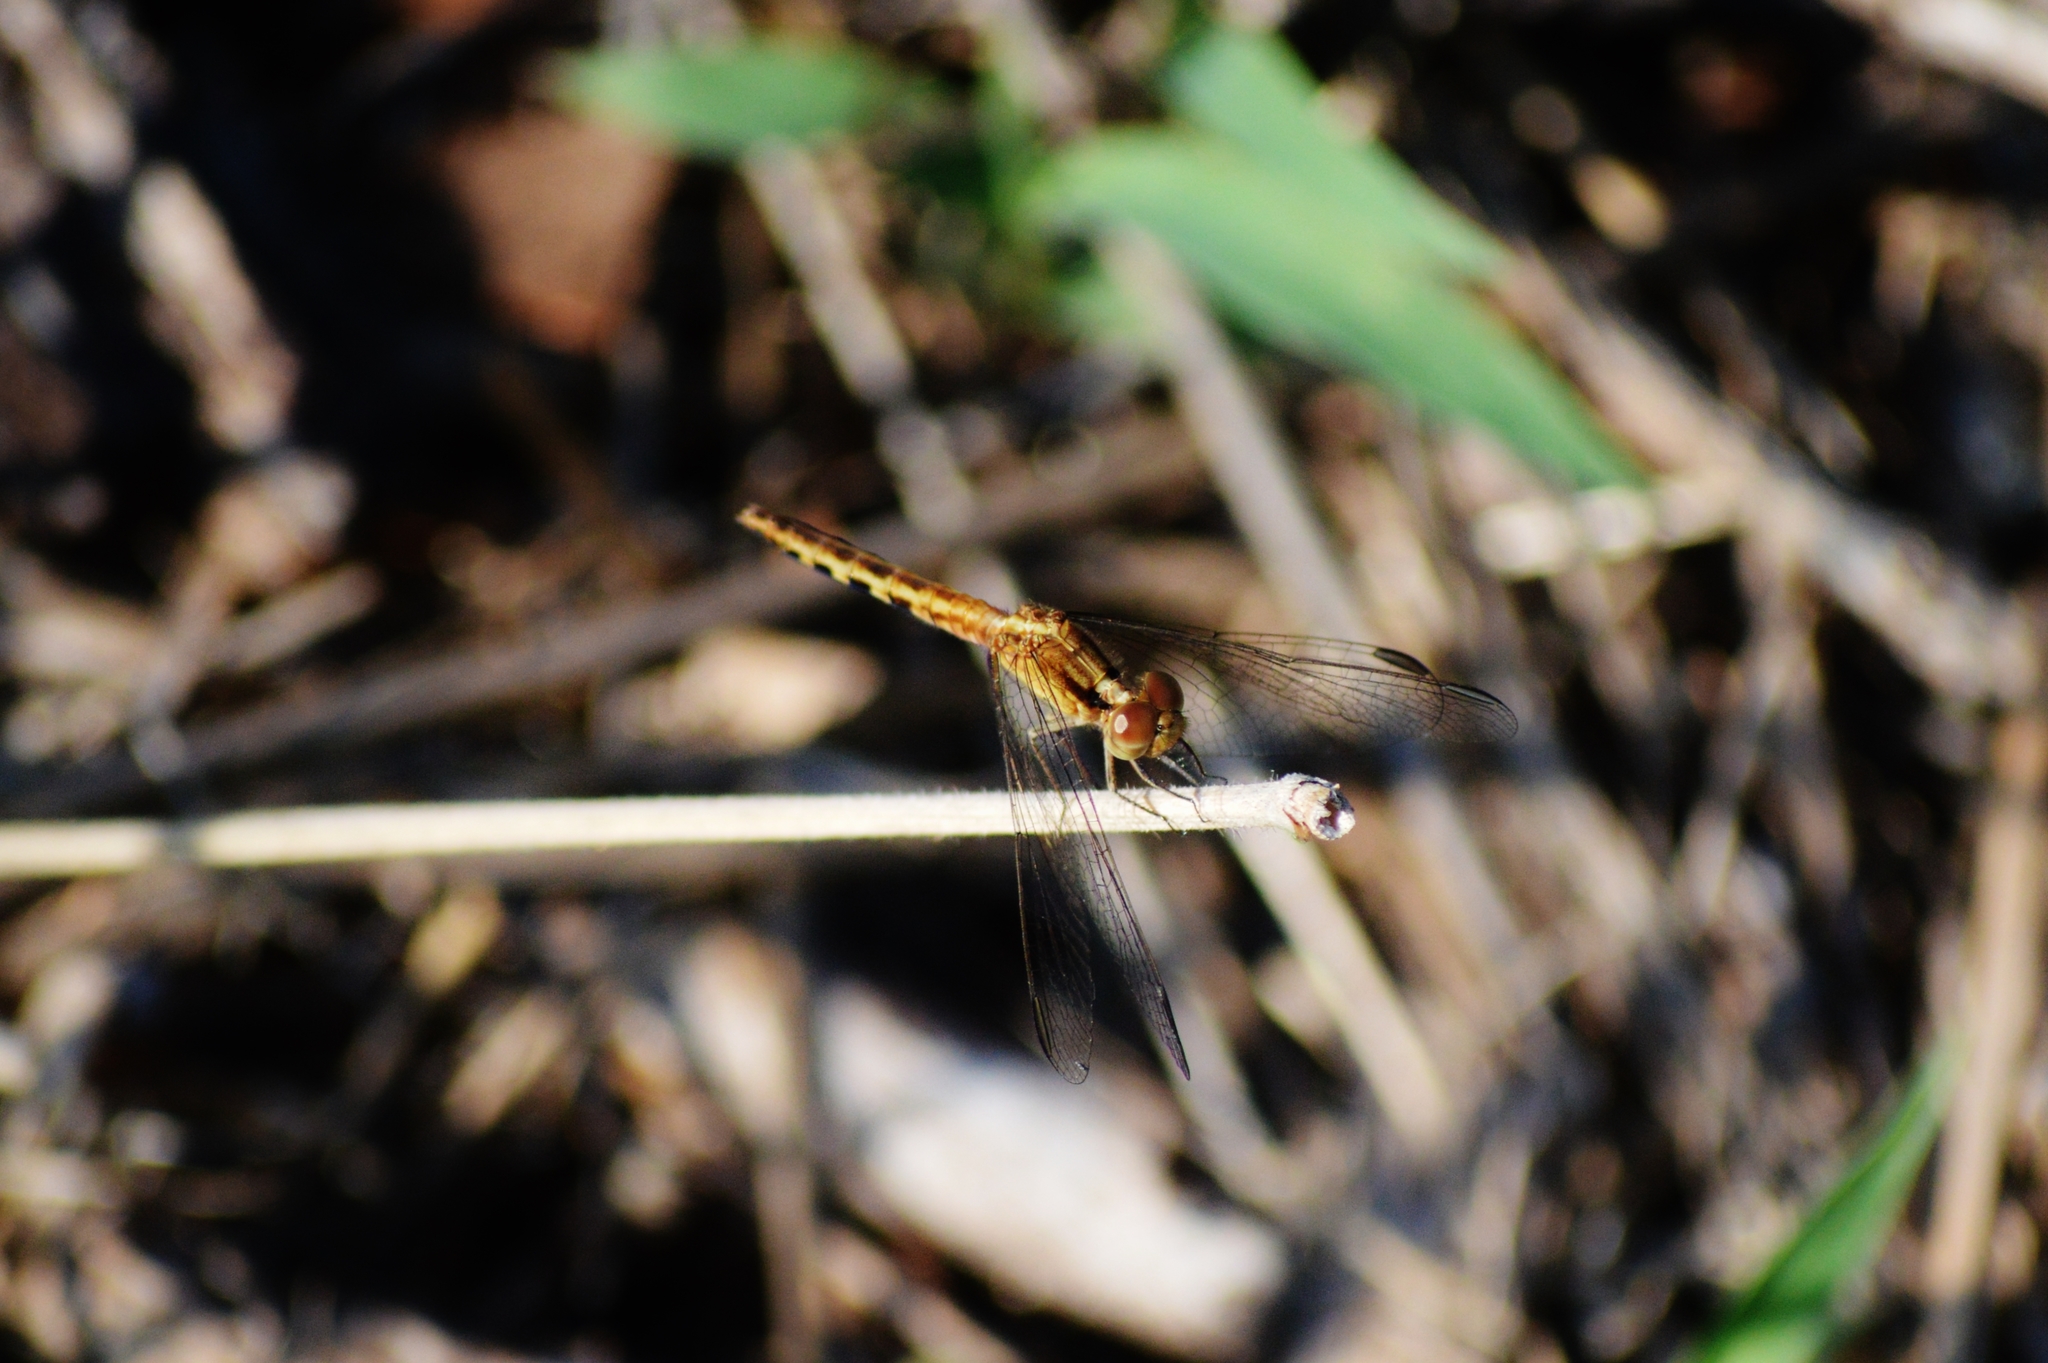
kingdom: Animalia
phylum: Arthropoda
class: Insecta
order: Odonata
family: Libellulidae
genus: Erythrodiplax
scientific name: Erythrodiplax ochracea
